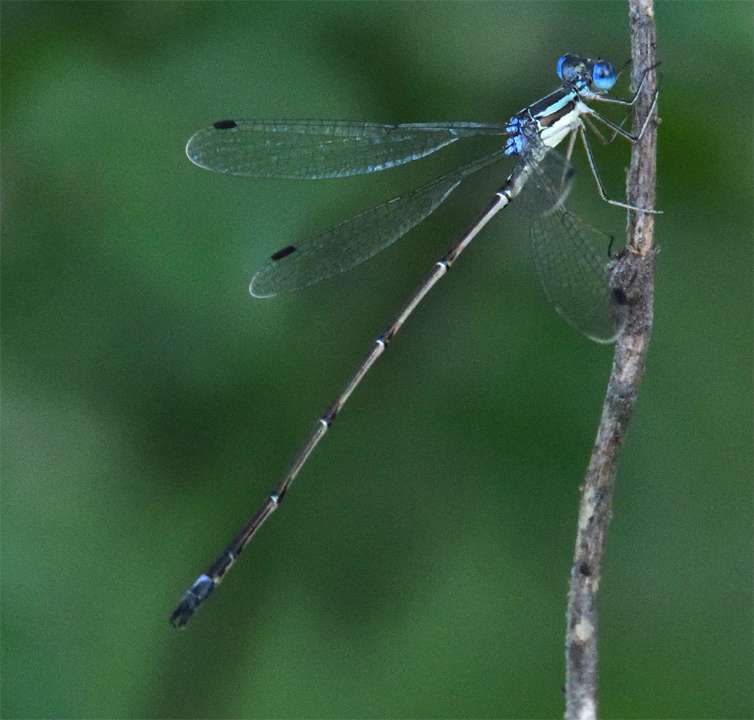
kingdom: Animalia
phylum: Arthropoda
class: Insecta
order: Odonata
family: Lestidae
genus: Lestes
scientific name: Lestes rectangularis
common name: Slender spreadwing
